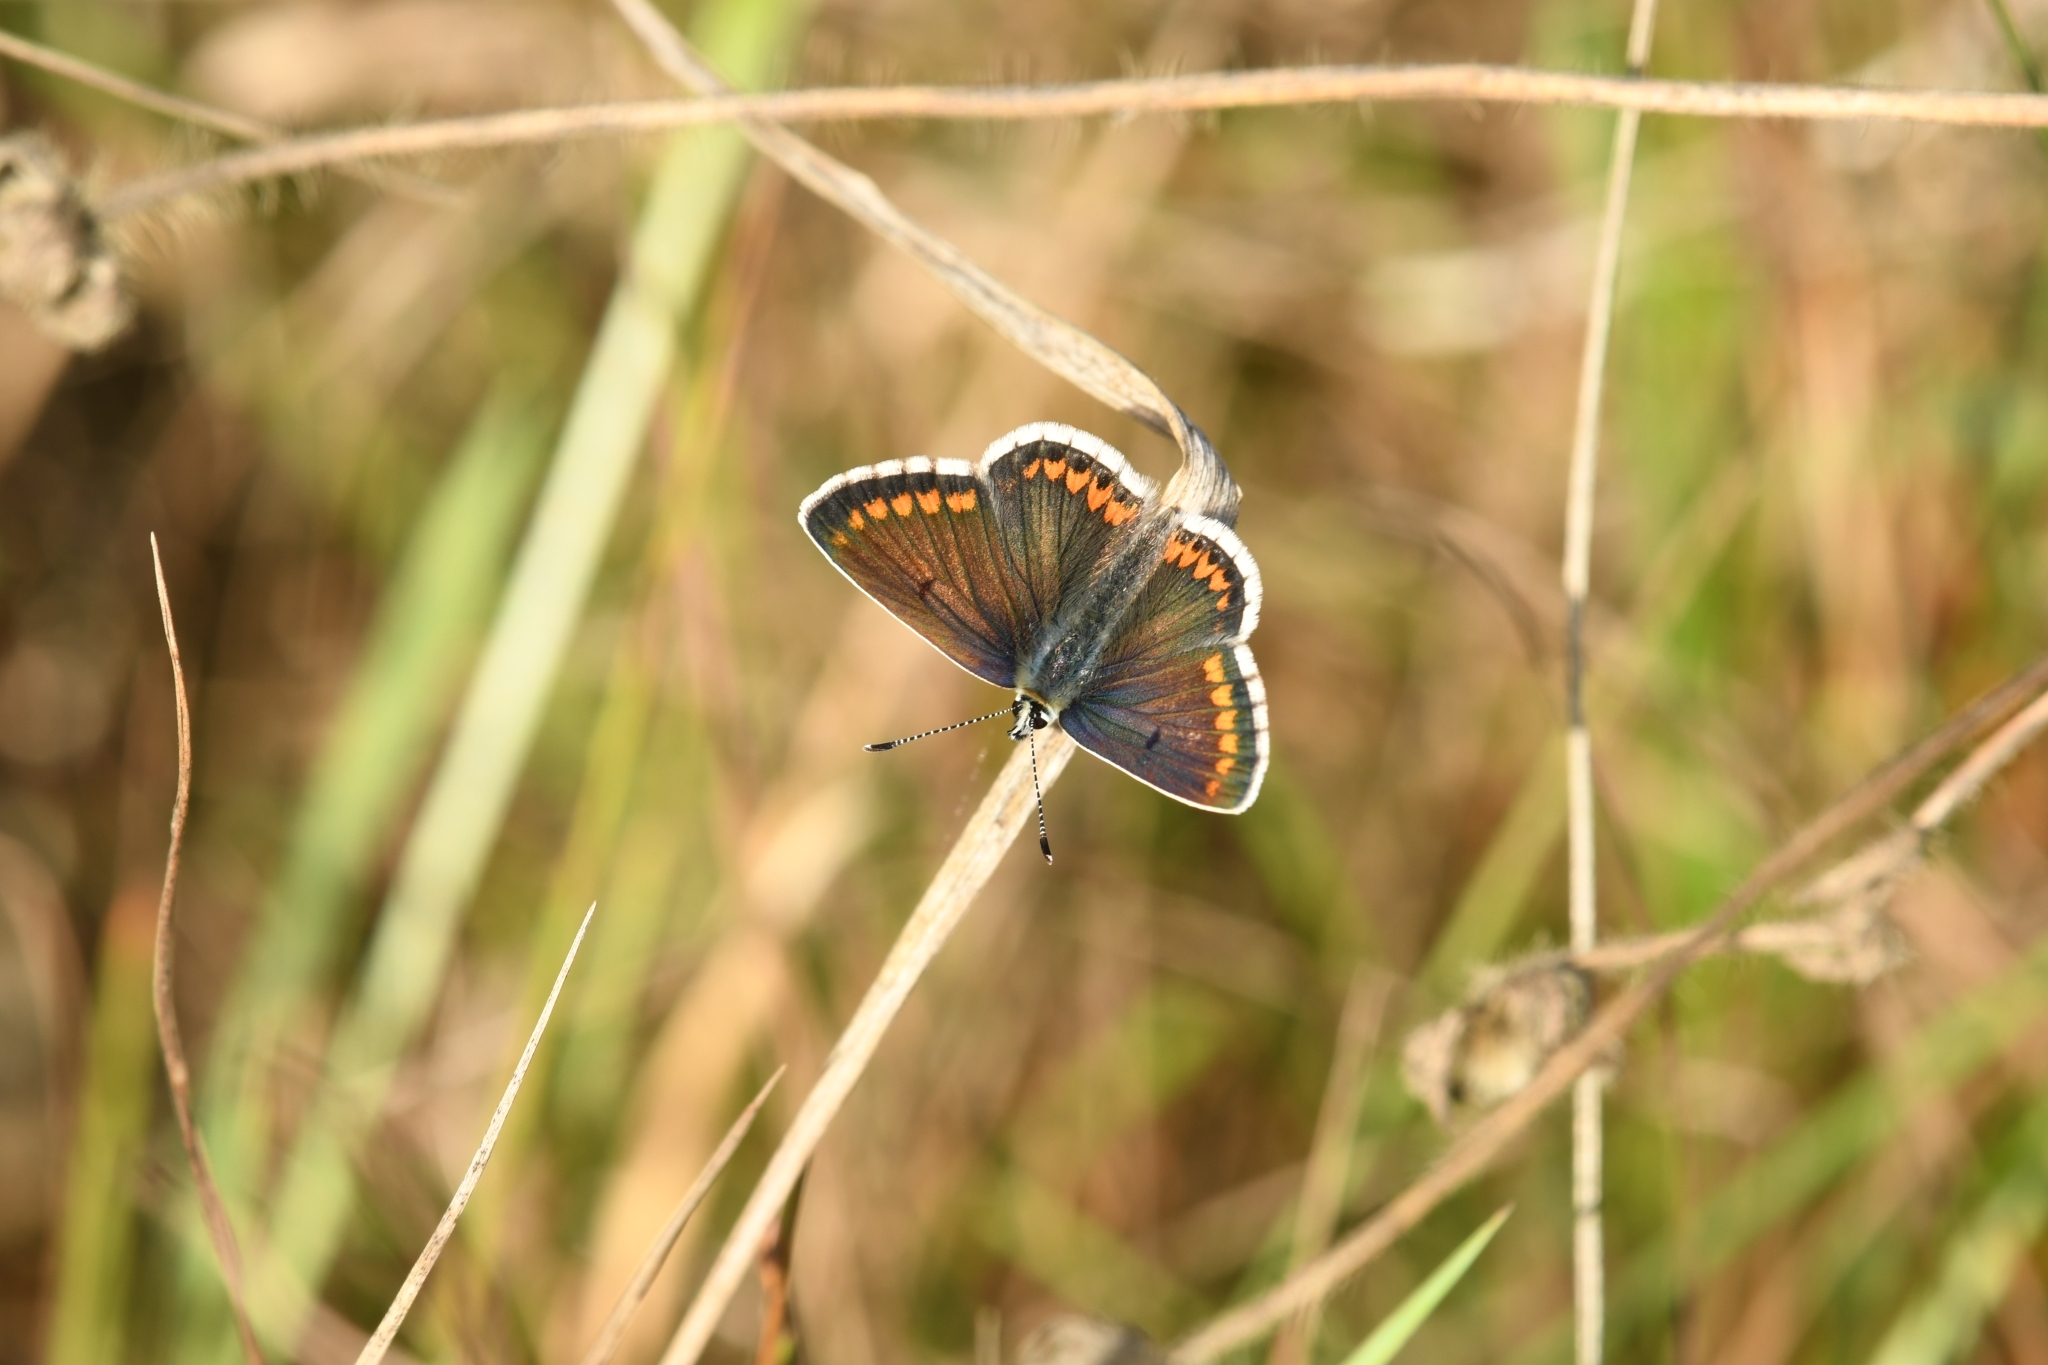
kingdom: Animalia
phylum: Arthropoda
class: Insecta
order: Lepidoptera
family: Lycaenidae
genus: Aricia
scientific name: Aricia agestis
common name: Brown argus
